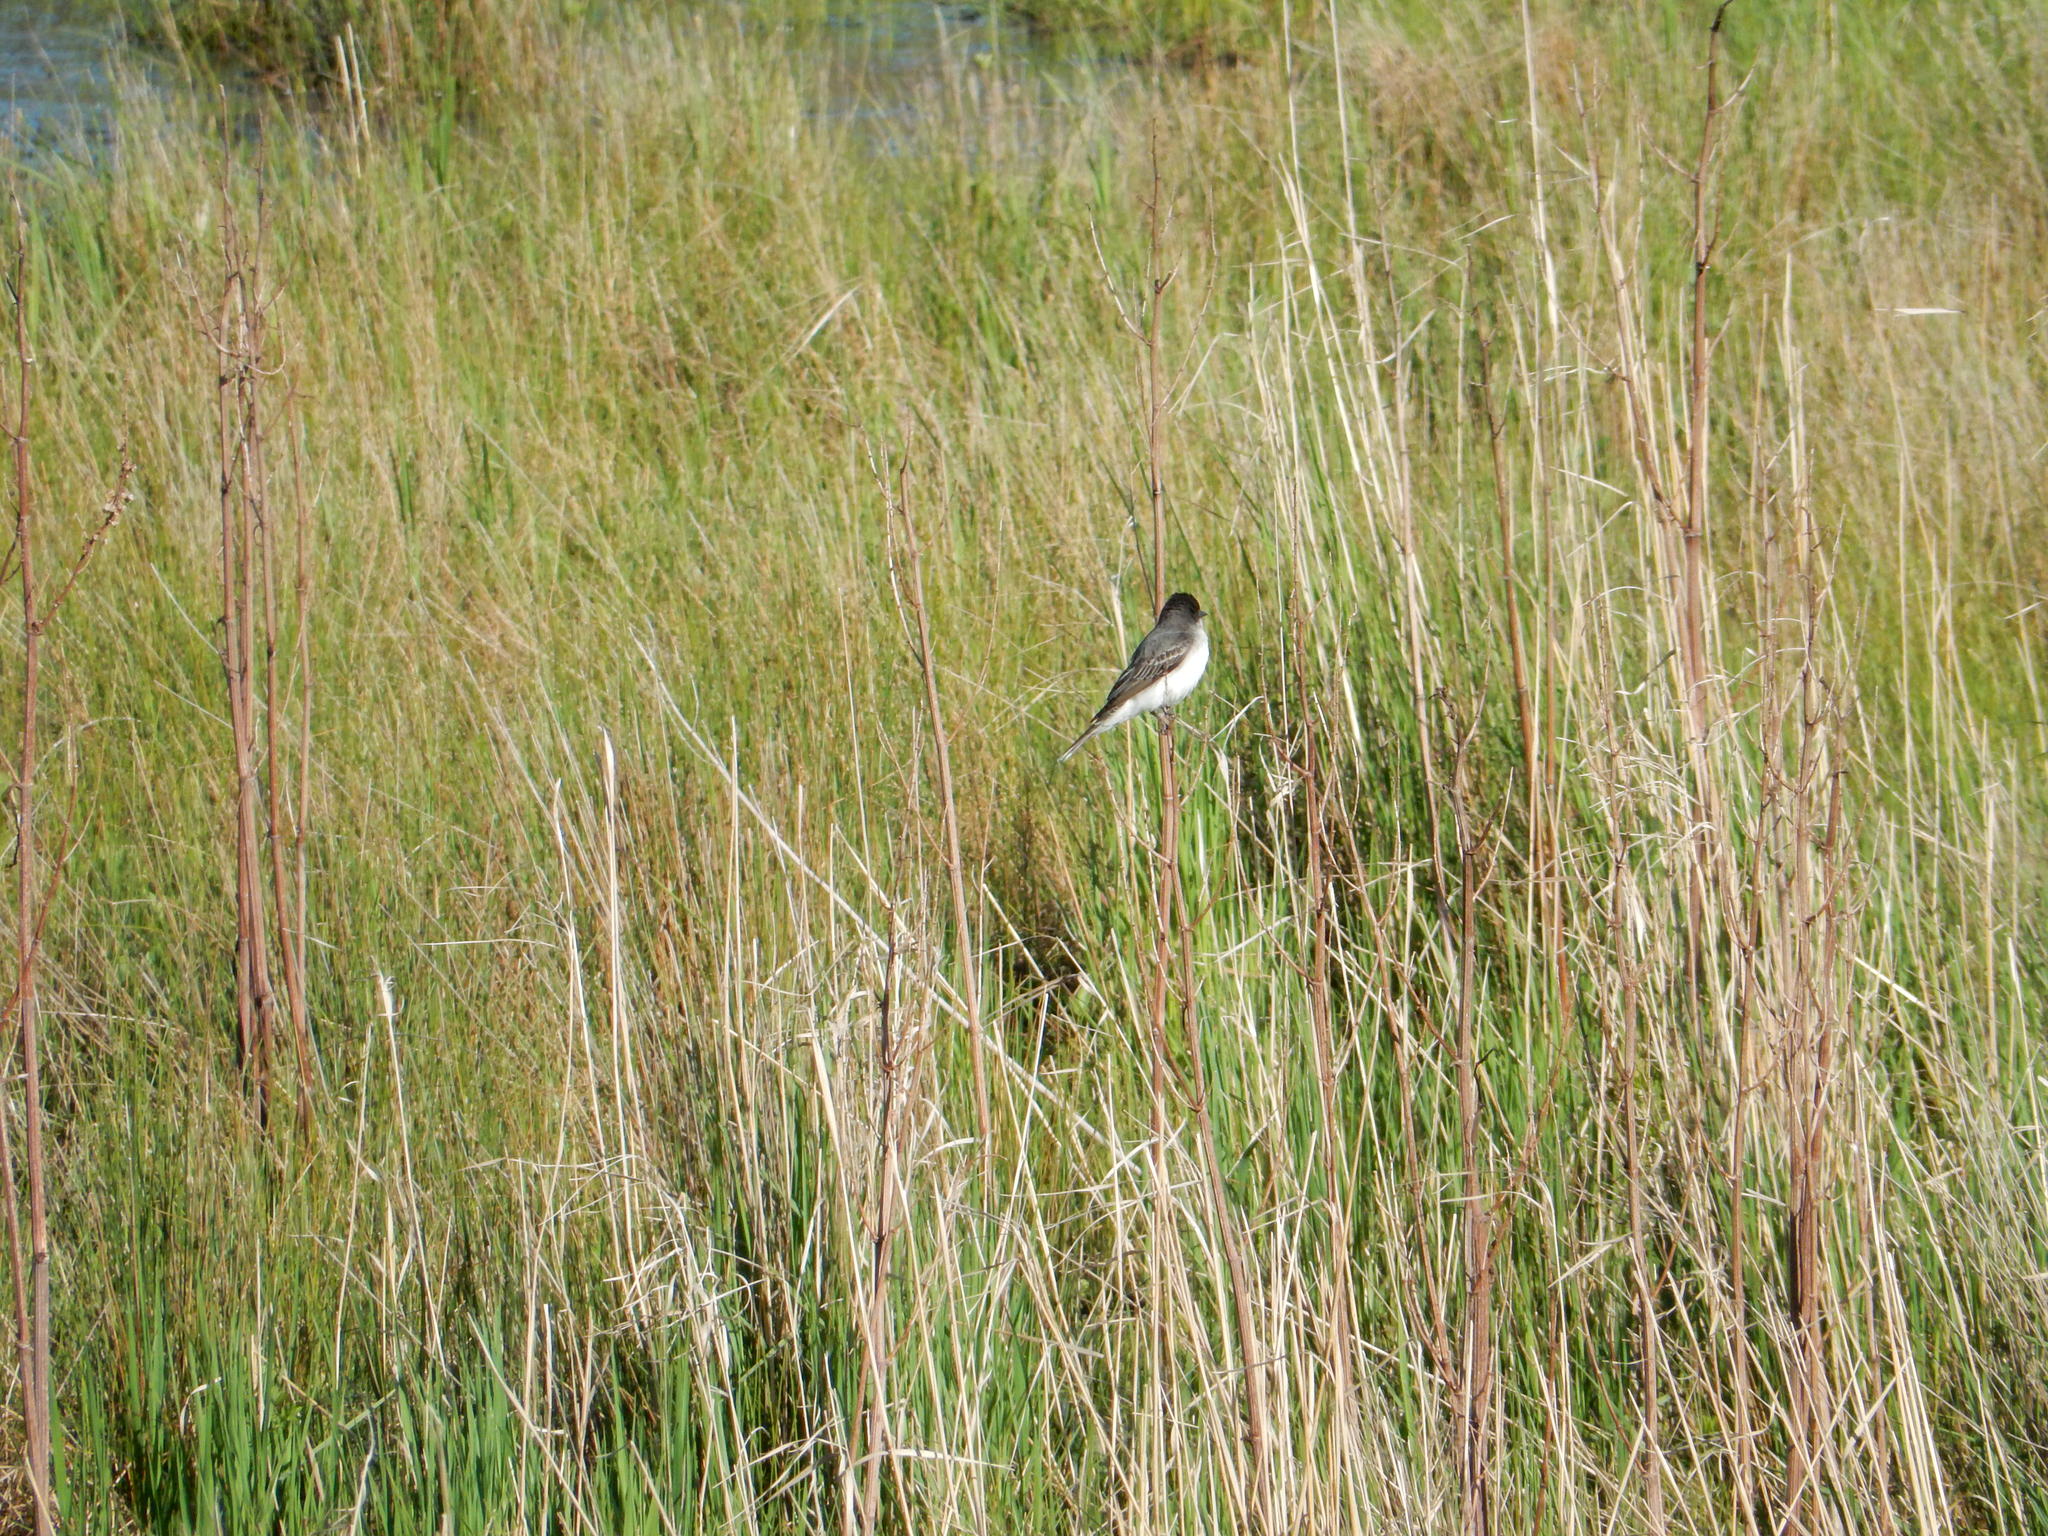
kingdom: Animalia
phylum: Chordata
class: Aves
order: Passeriformes
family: Tyrannidae
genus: Tyrannus
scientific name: Tyrannus tyrannus
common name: Eastern kingbird
